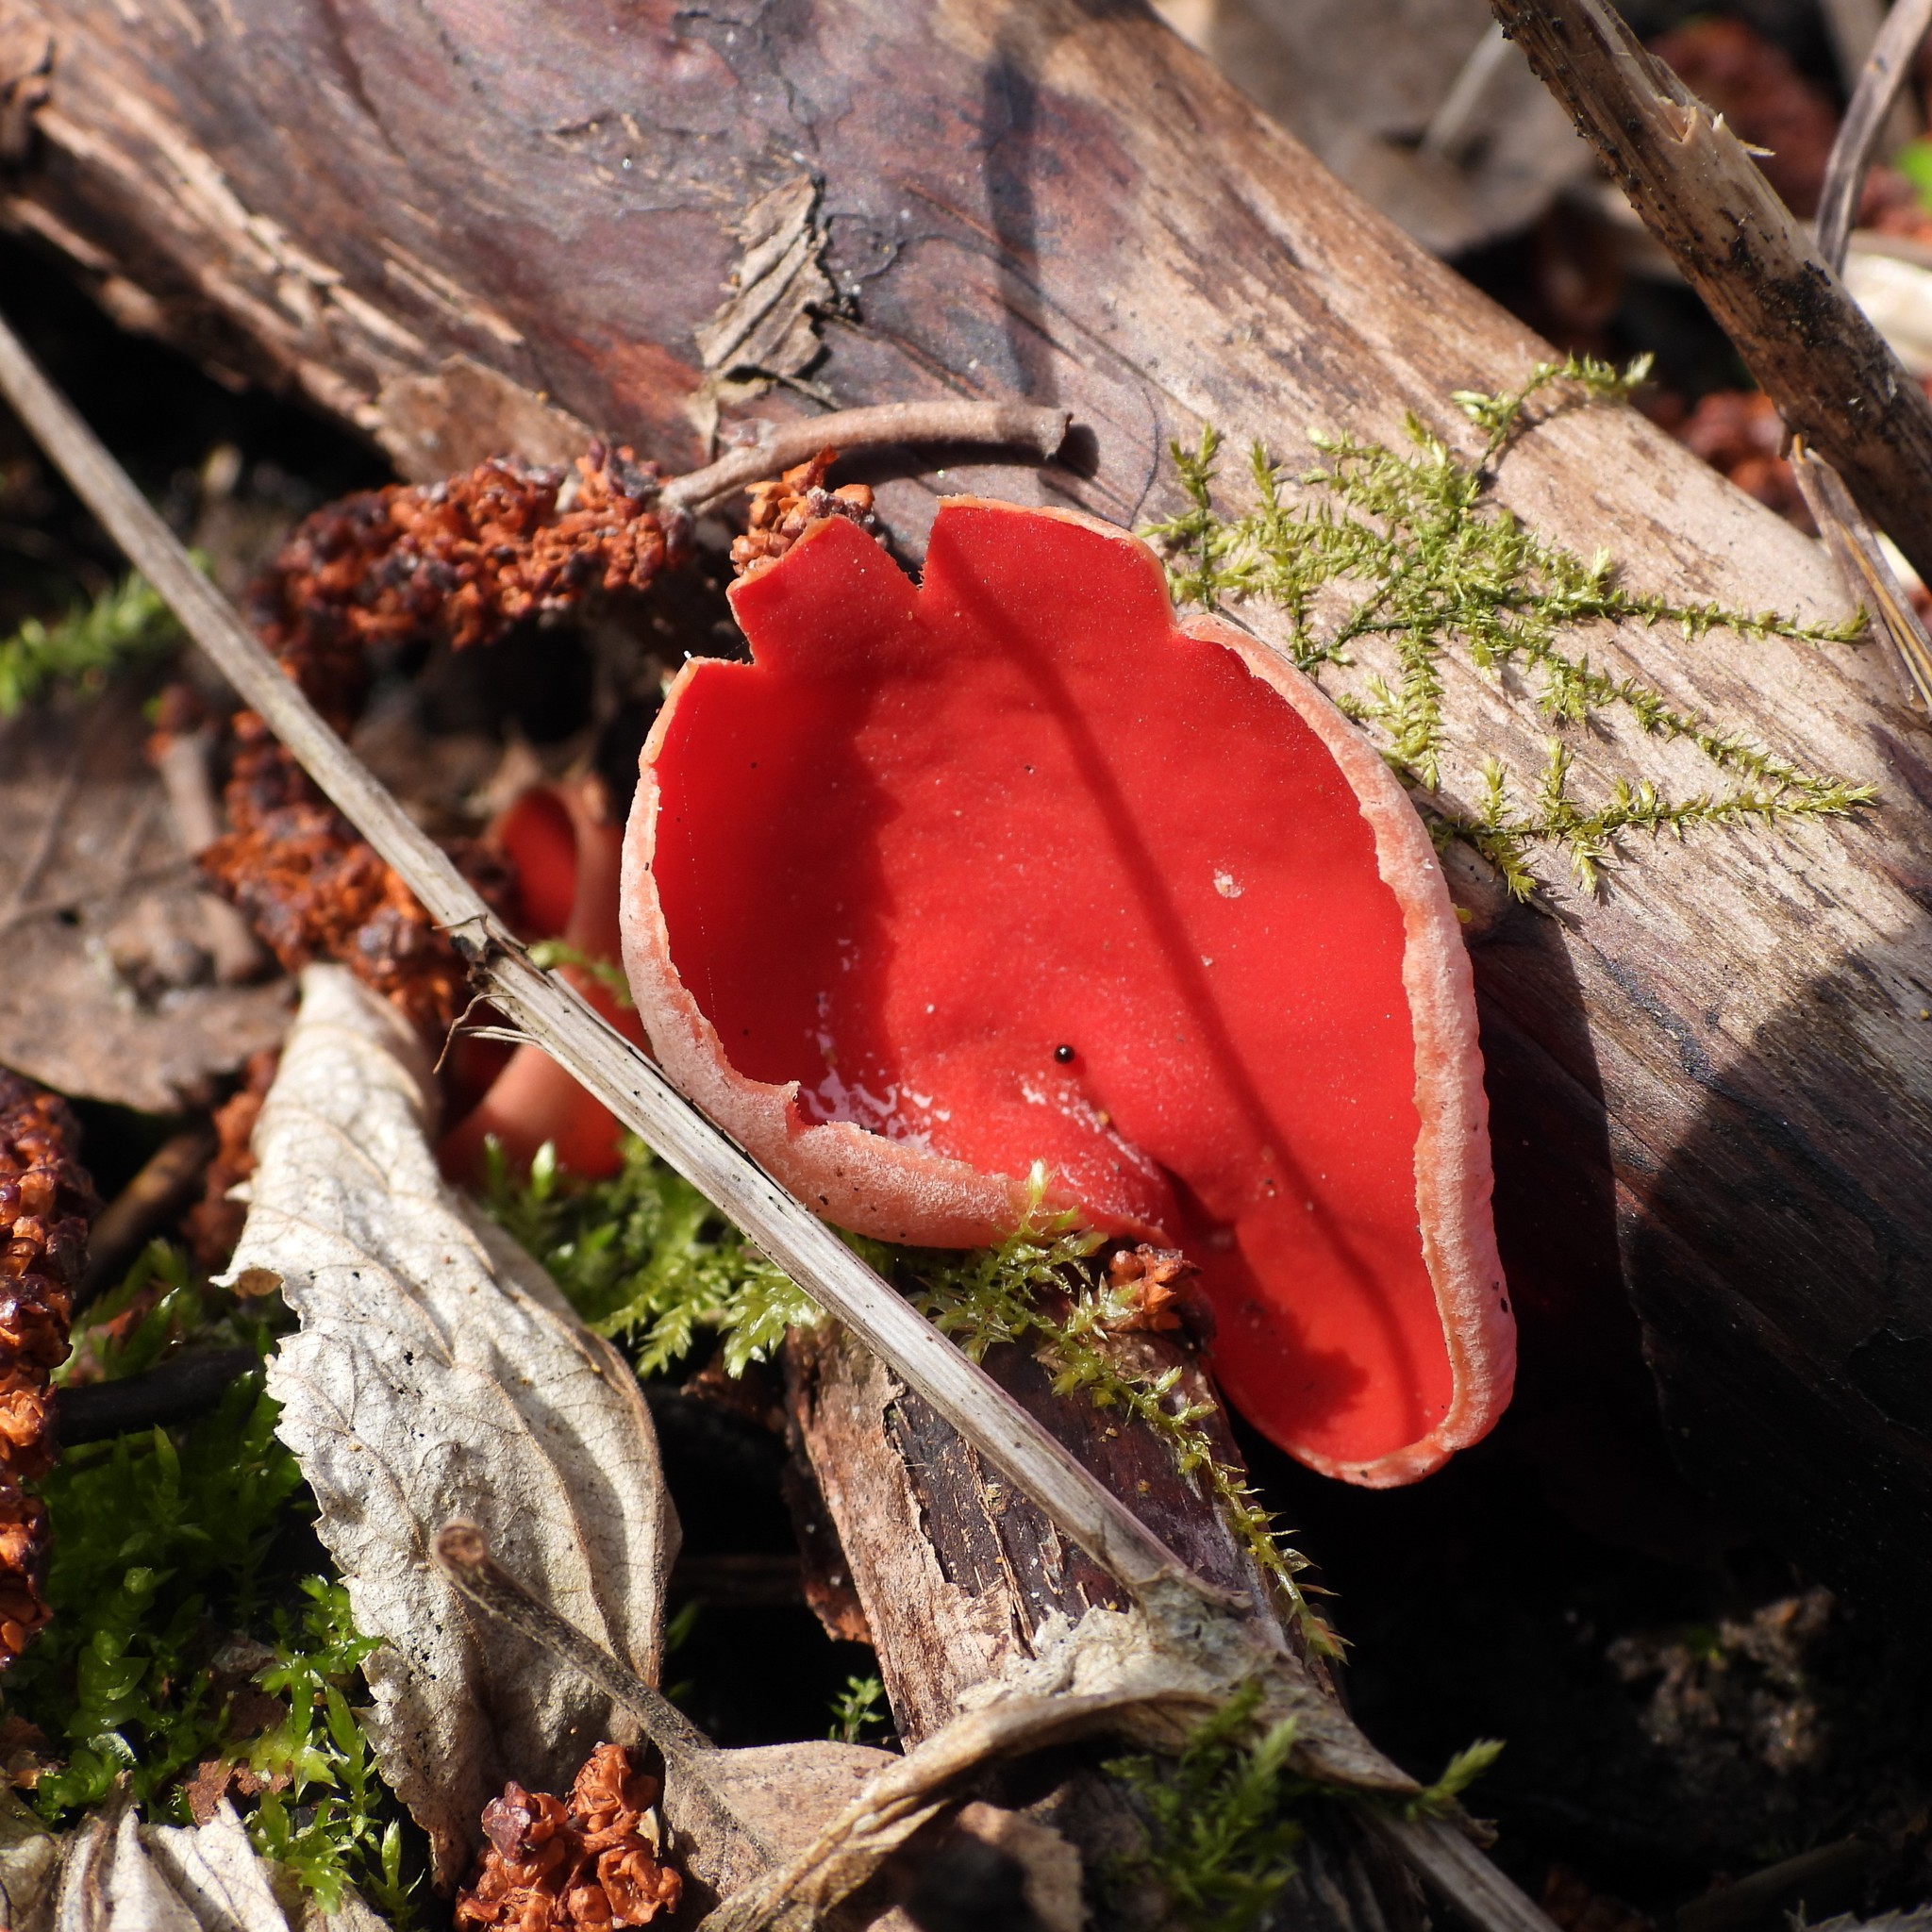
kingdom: Fungi
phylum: Ascomycota
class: Pezizomycetes
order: Pezizales
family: Sarcoscyphaceae
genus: Sarcoscypha
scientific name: Sarcoscypha austriaca
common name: Scarlet elfcup
